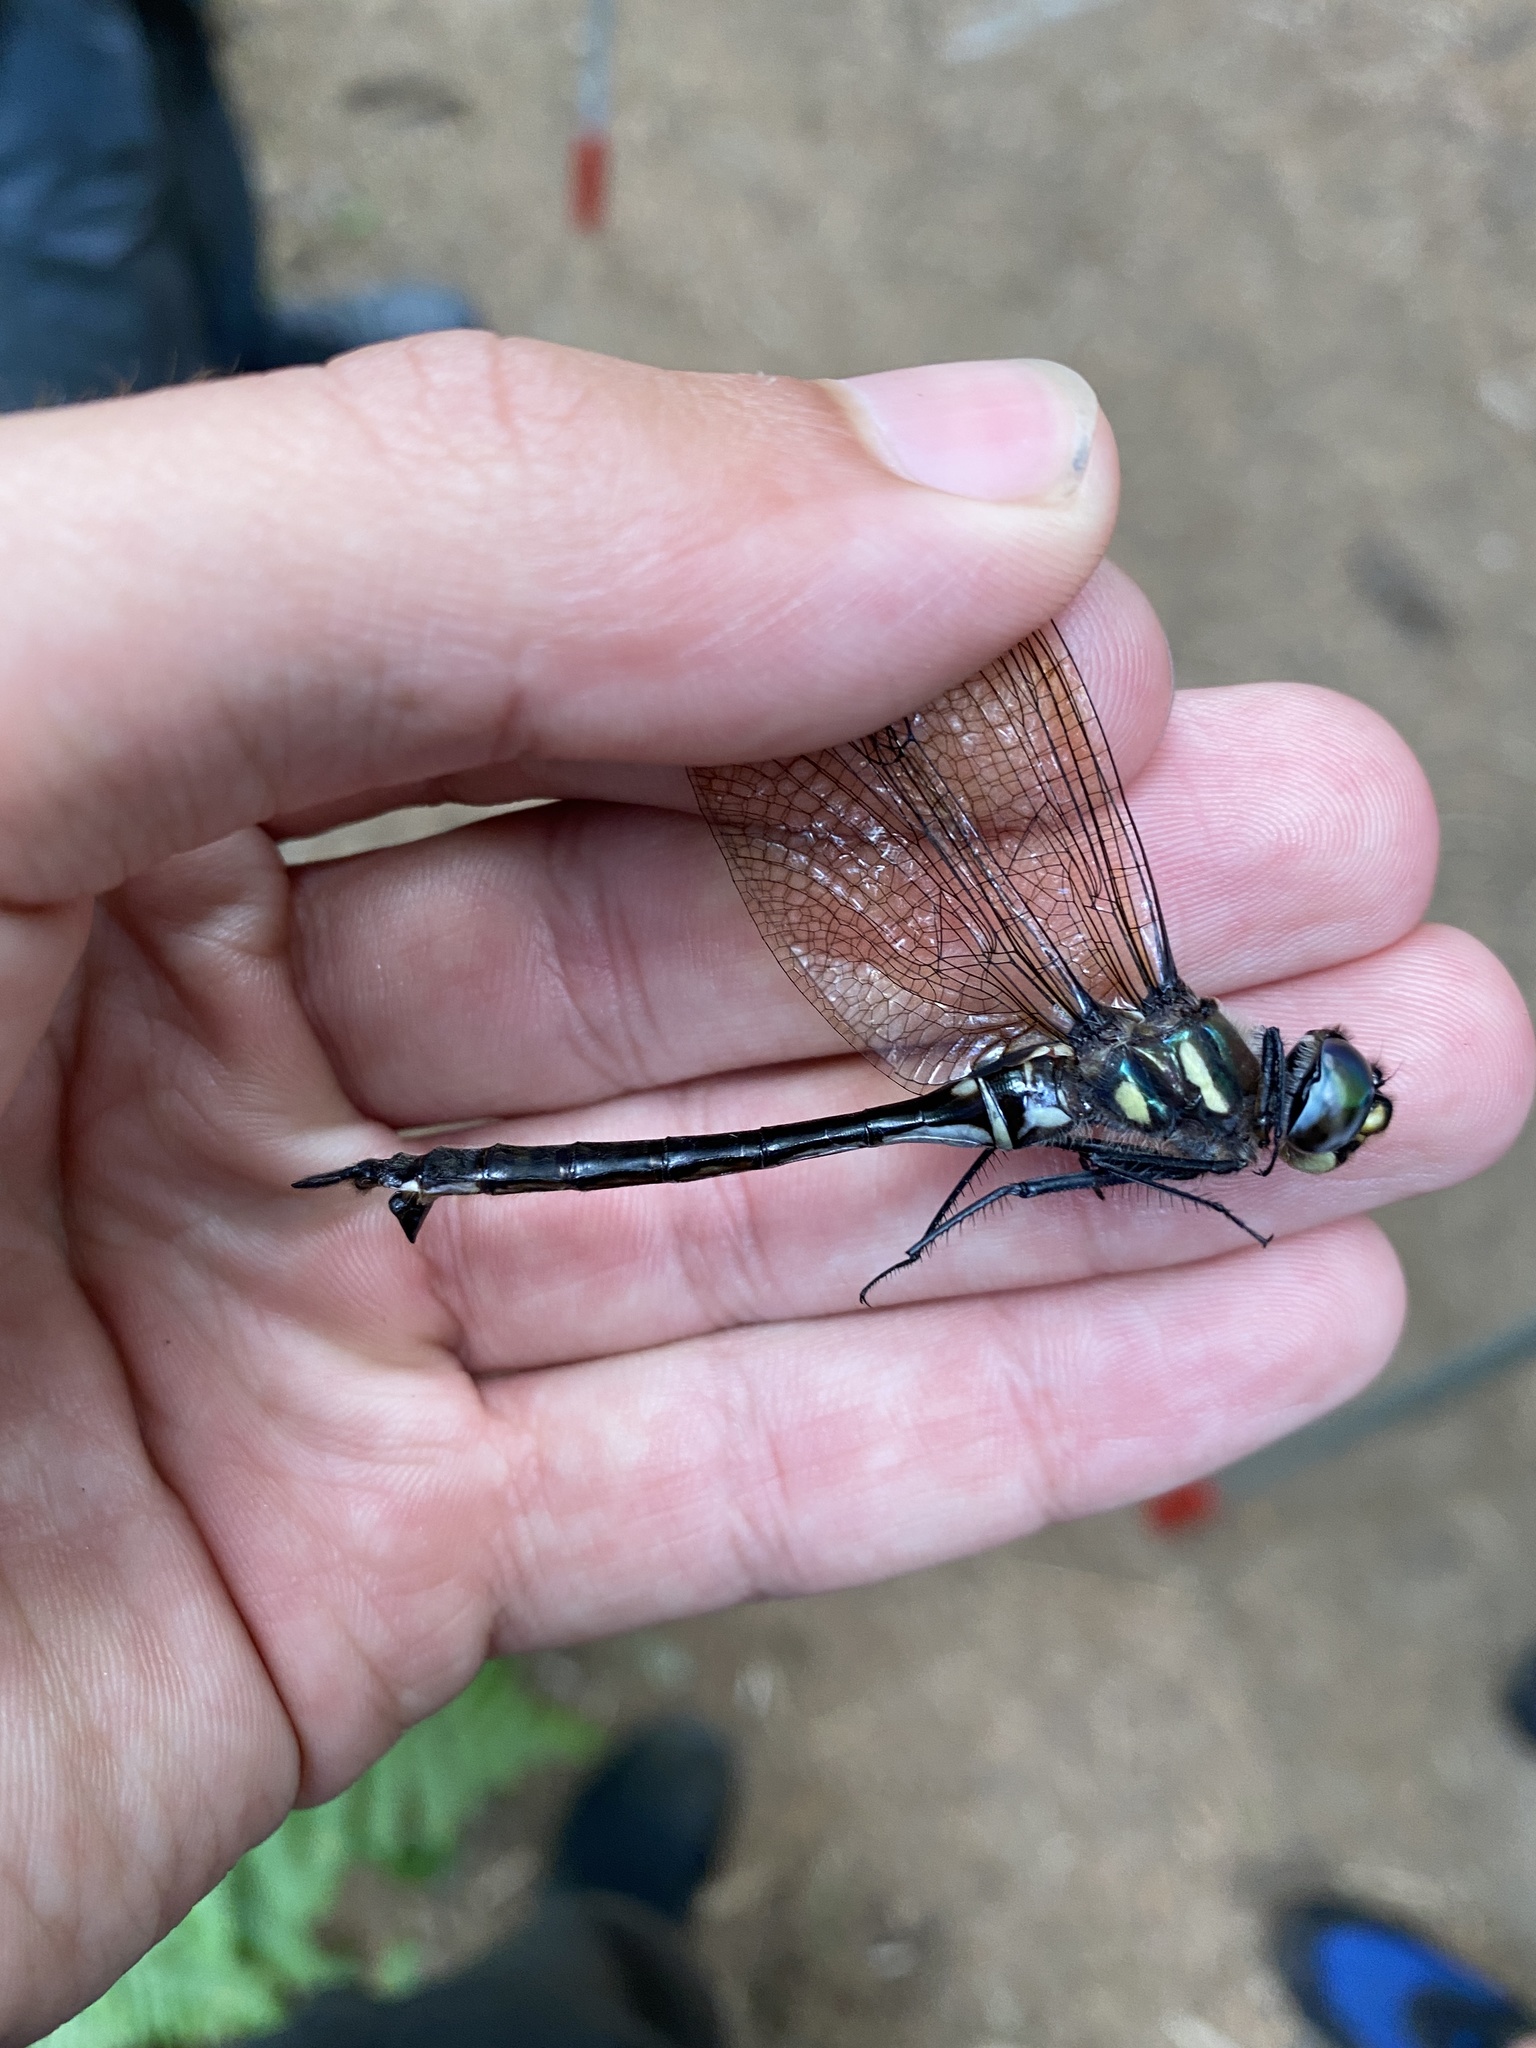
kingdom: Animalia
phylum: Arthropoda
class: Insecta
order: Odonata
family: Corduliidae
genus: Somatochlora
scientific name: Somatochlora elongata
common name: Ski-tipped emerald
